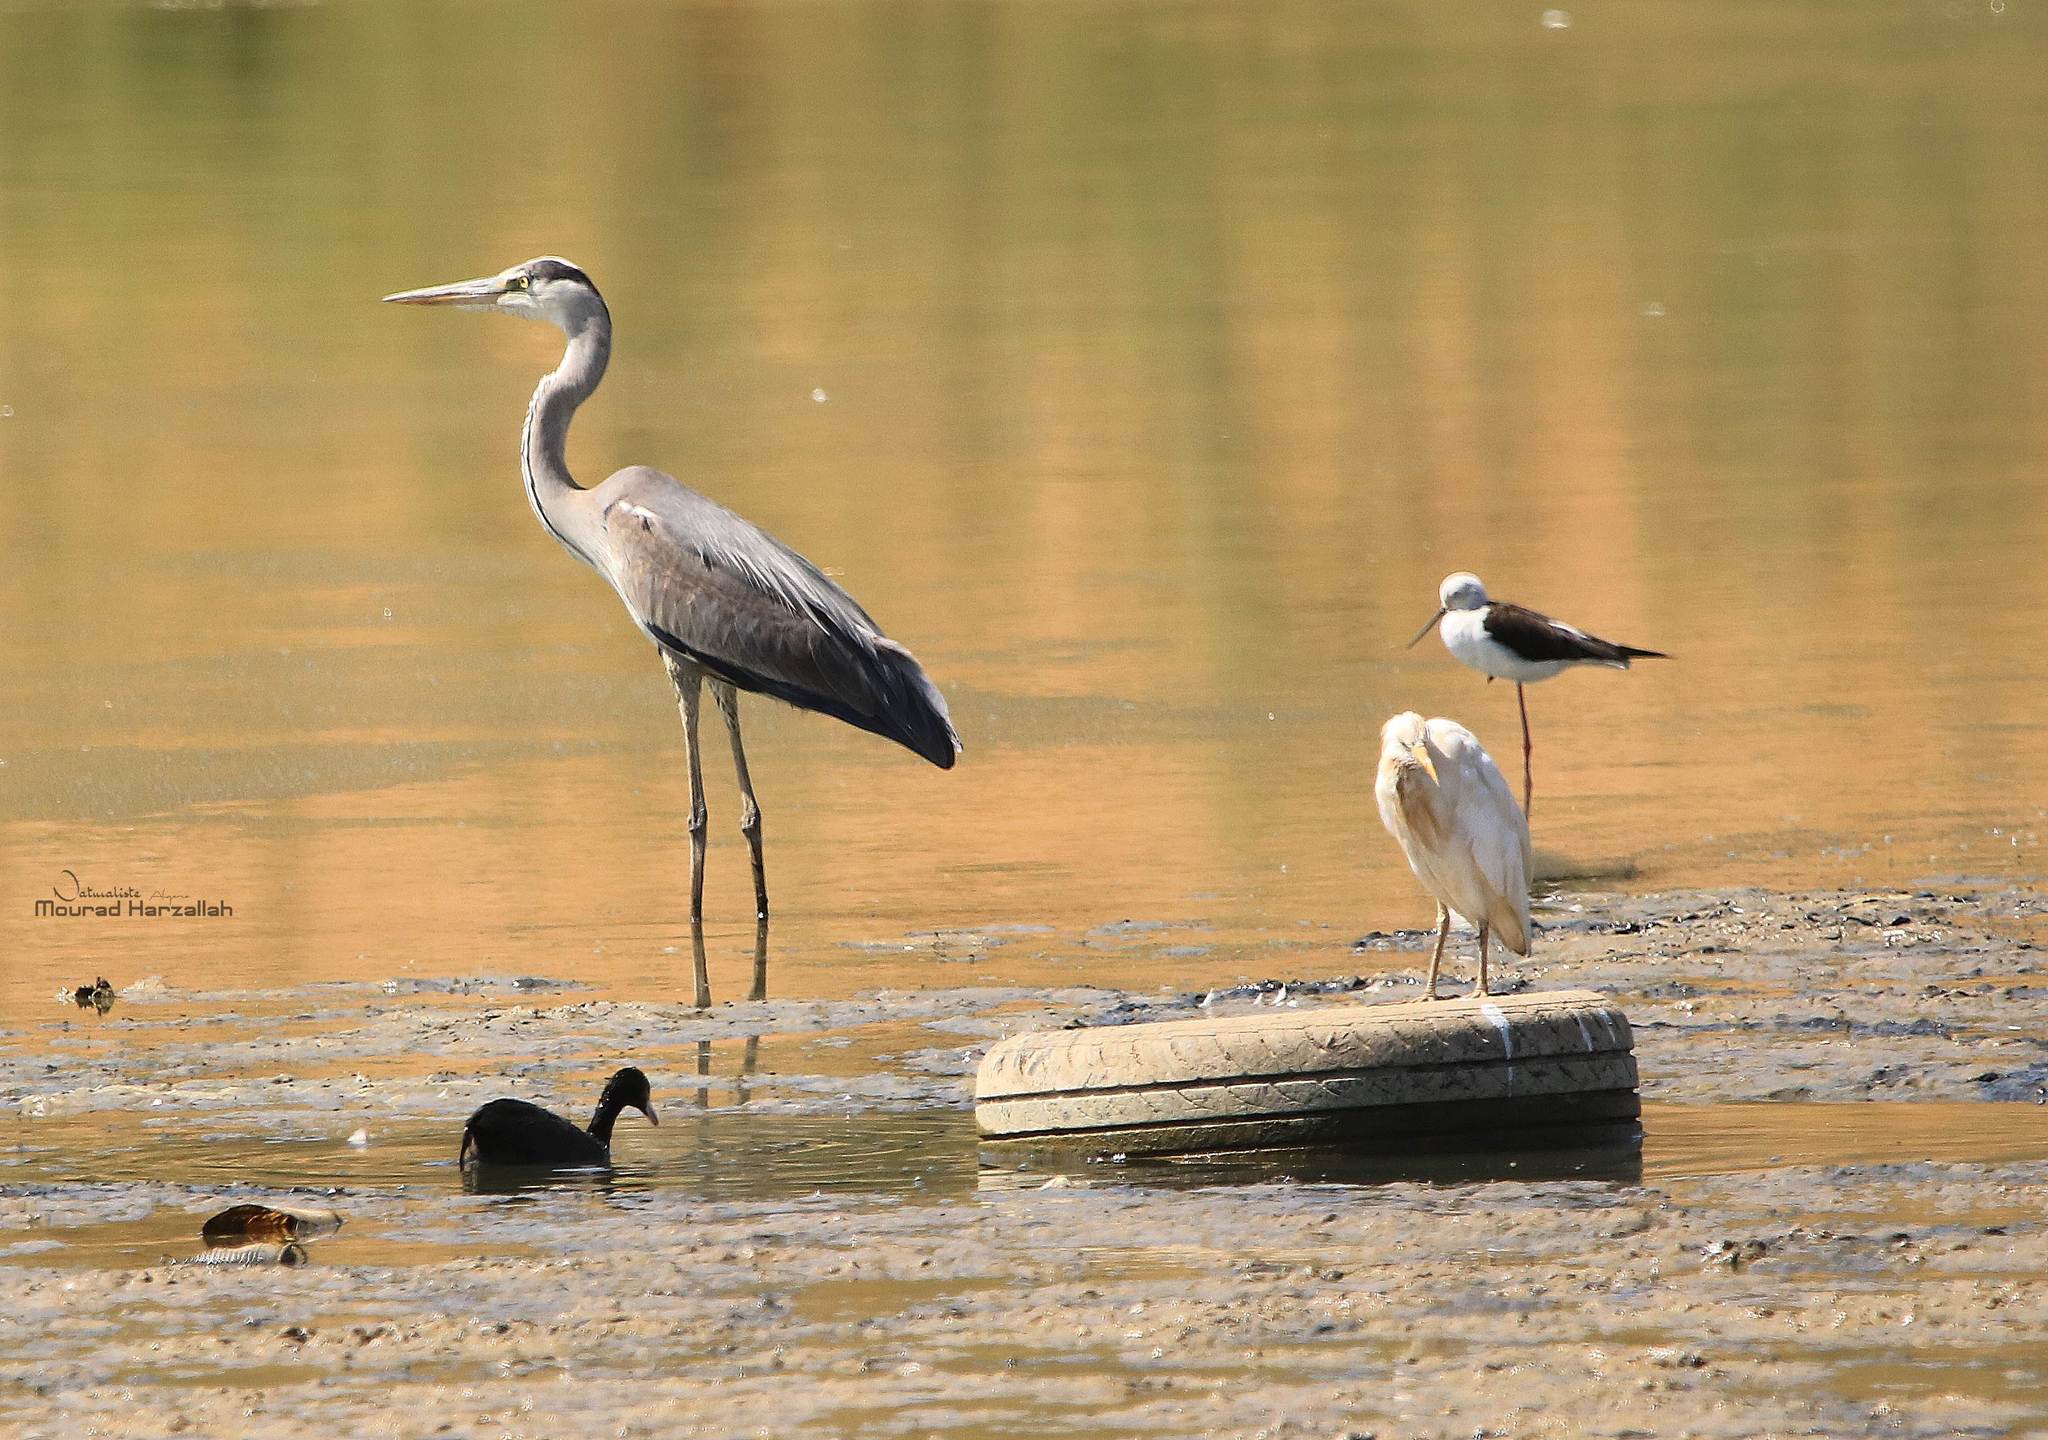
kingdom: Animalia
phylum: Chordata
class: Aves
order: Pelecaniformes
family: Ardeidae
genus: Ardea
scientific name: Ardea cinerea
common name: Grey heron
